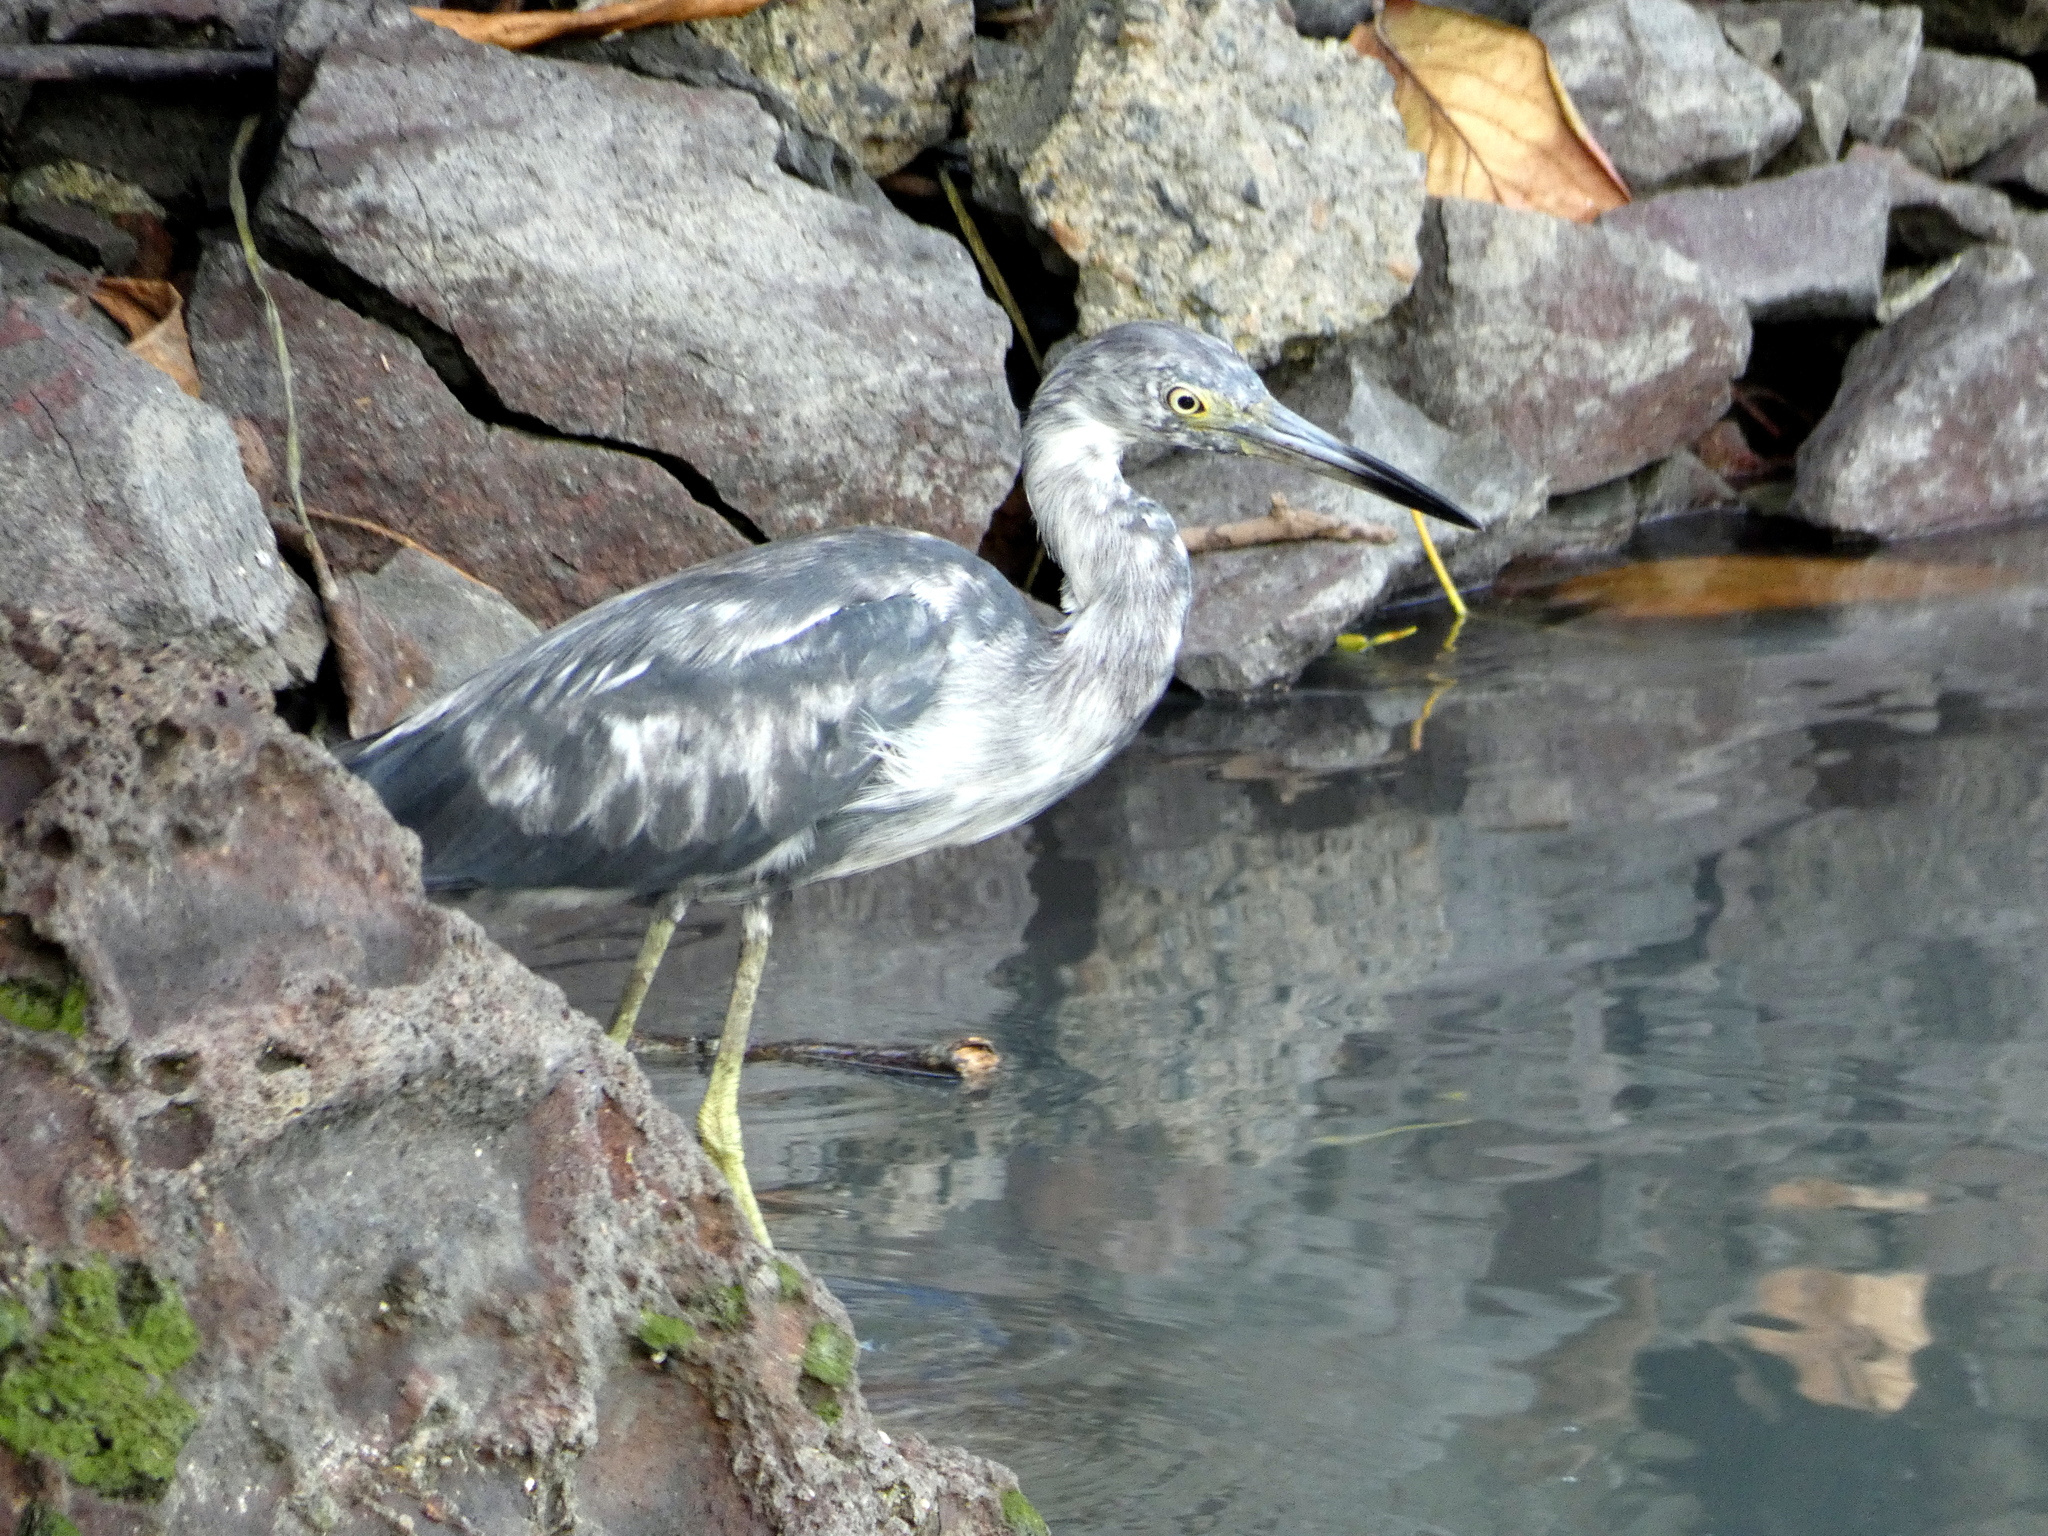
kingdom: Animalia
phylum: Chordata
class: Aves
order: Pelecaniformes
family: Ardeidae
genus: Egretta
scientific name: Egretta caerulea
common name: Little blue heron
